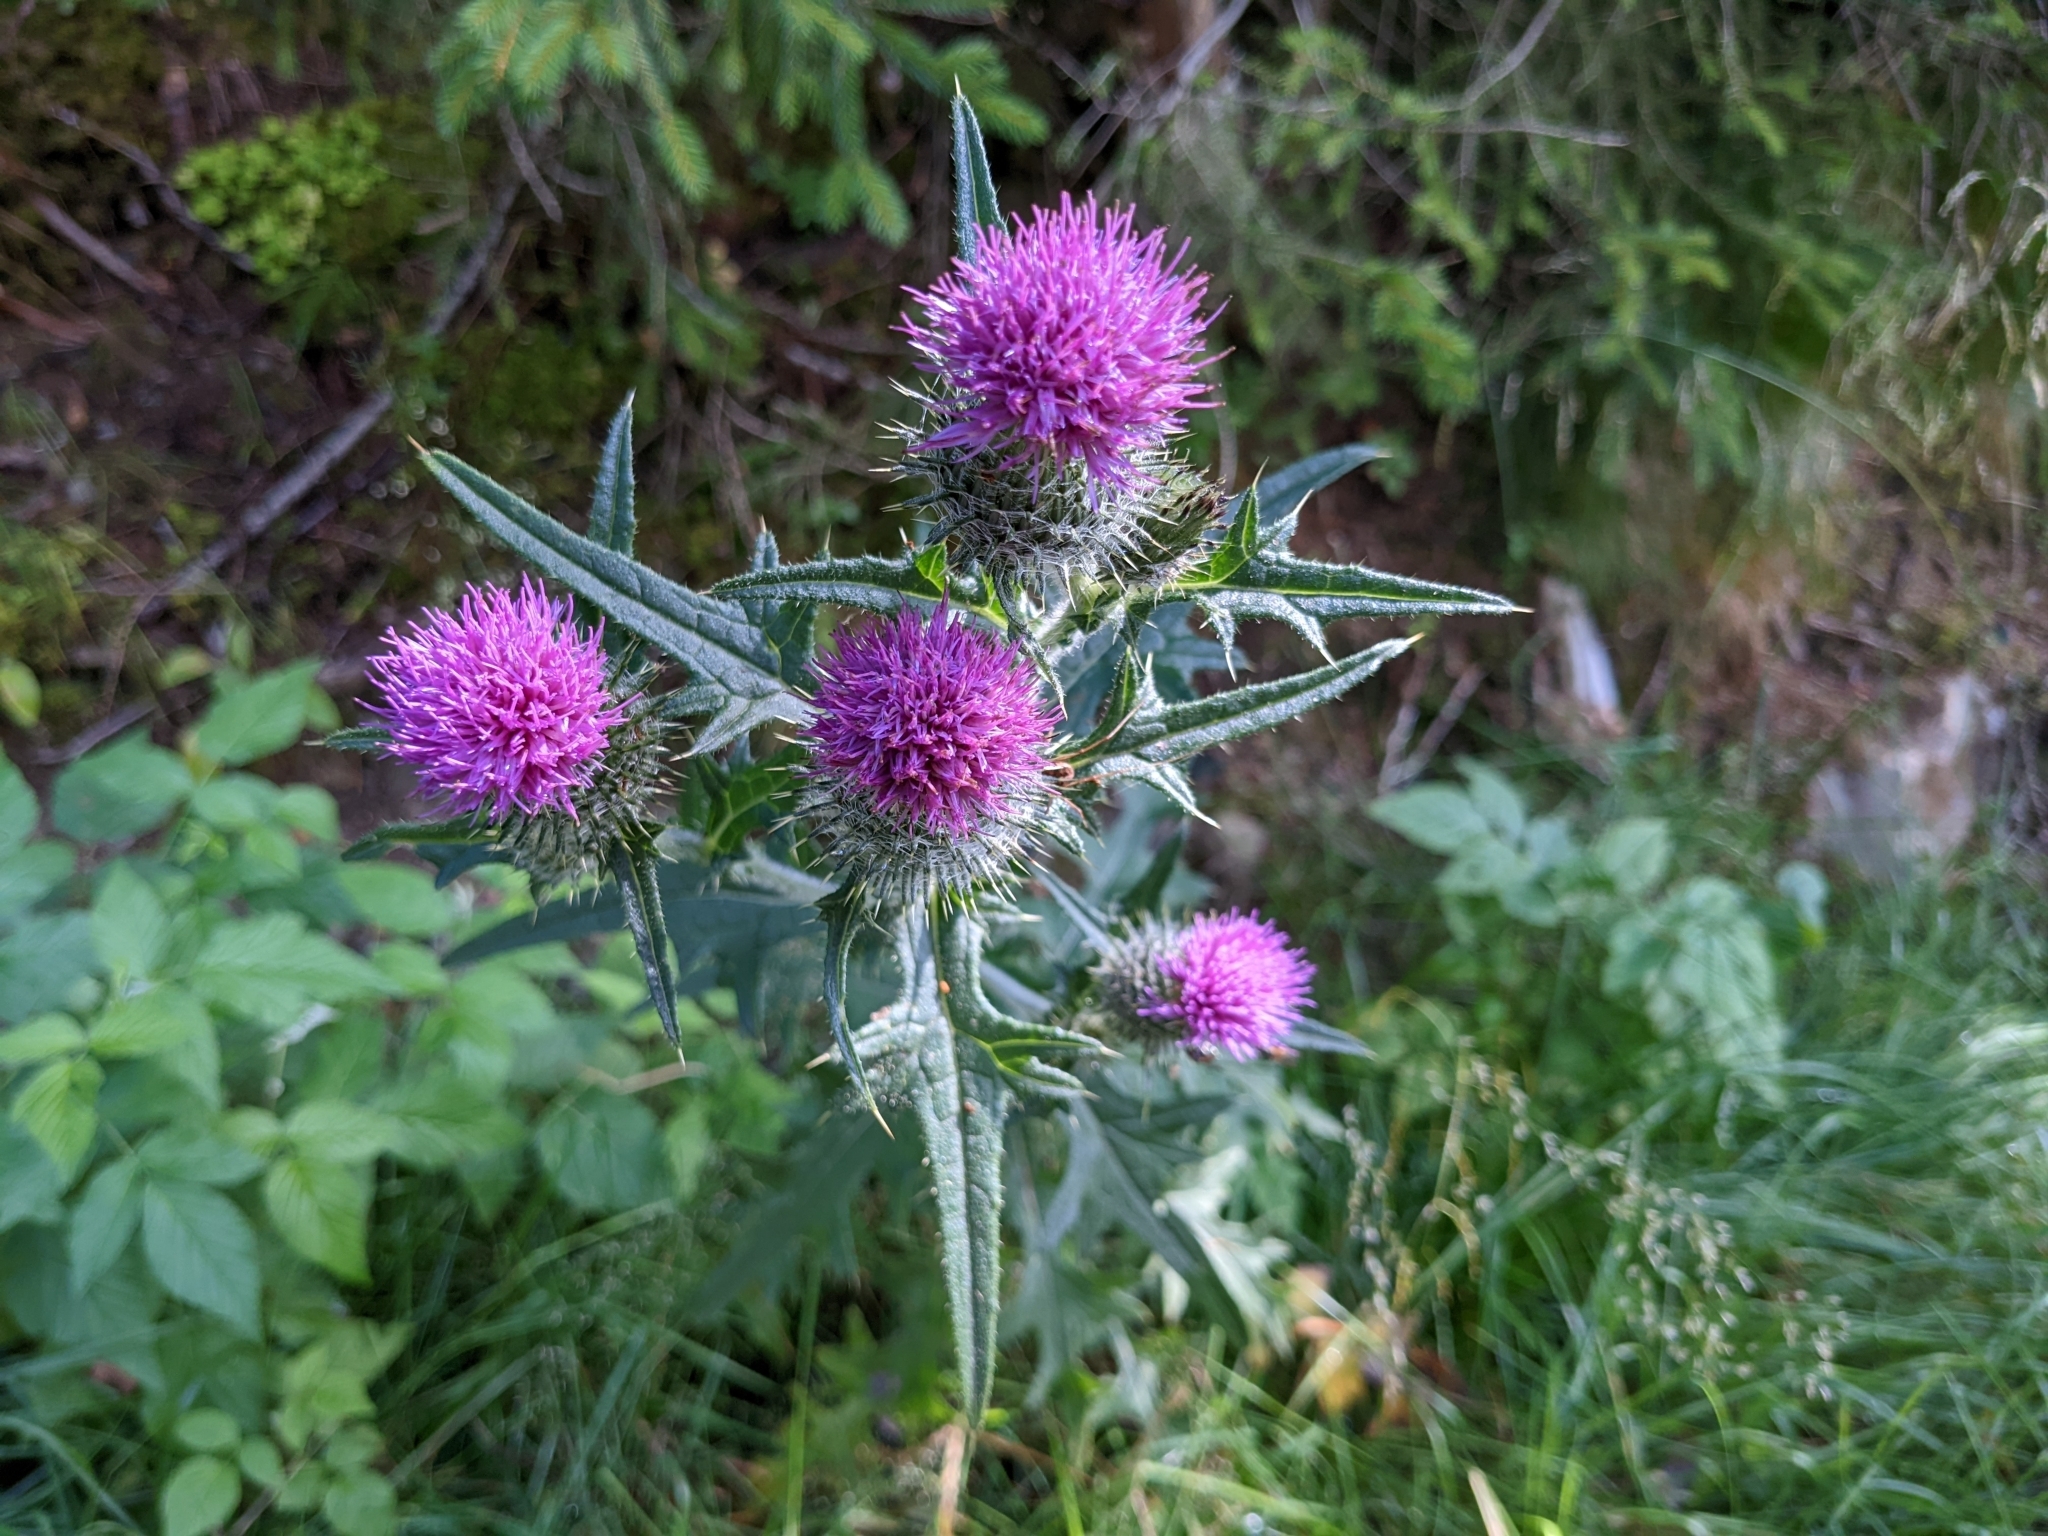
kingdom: Plantae
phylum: Tracheophyta
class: Magnoliopsida
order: Asterales
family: Asteraceae
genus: Cirsium
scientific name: Cirsium vulgare
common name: Bull thistle
